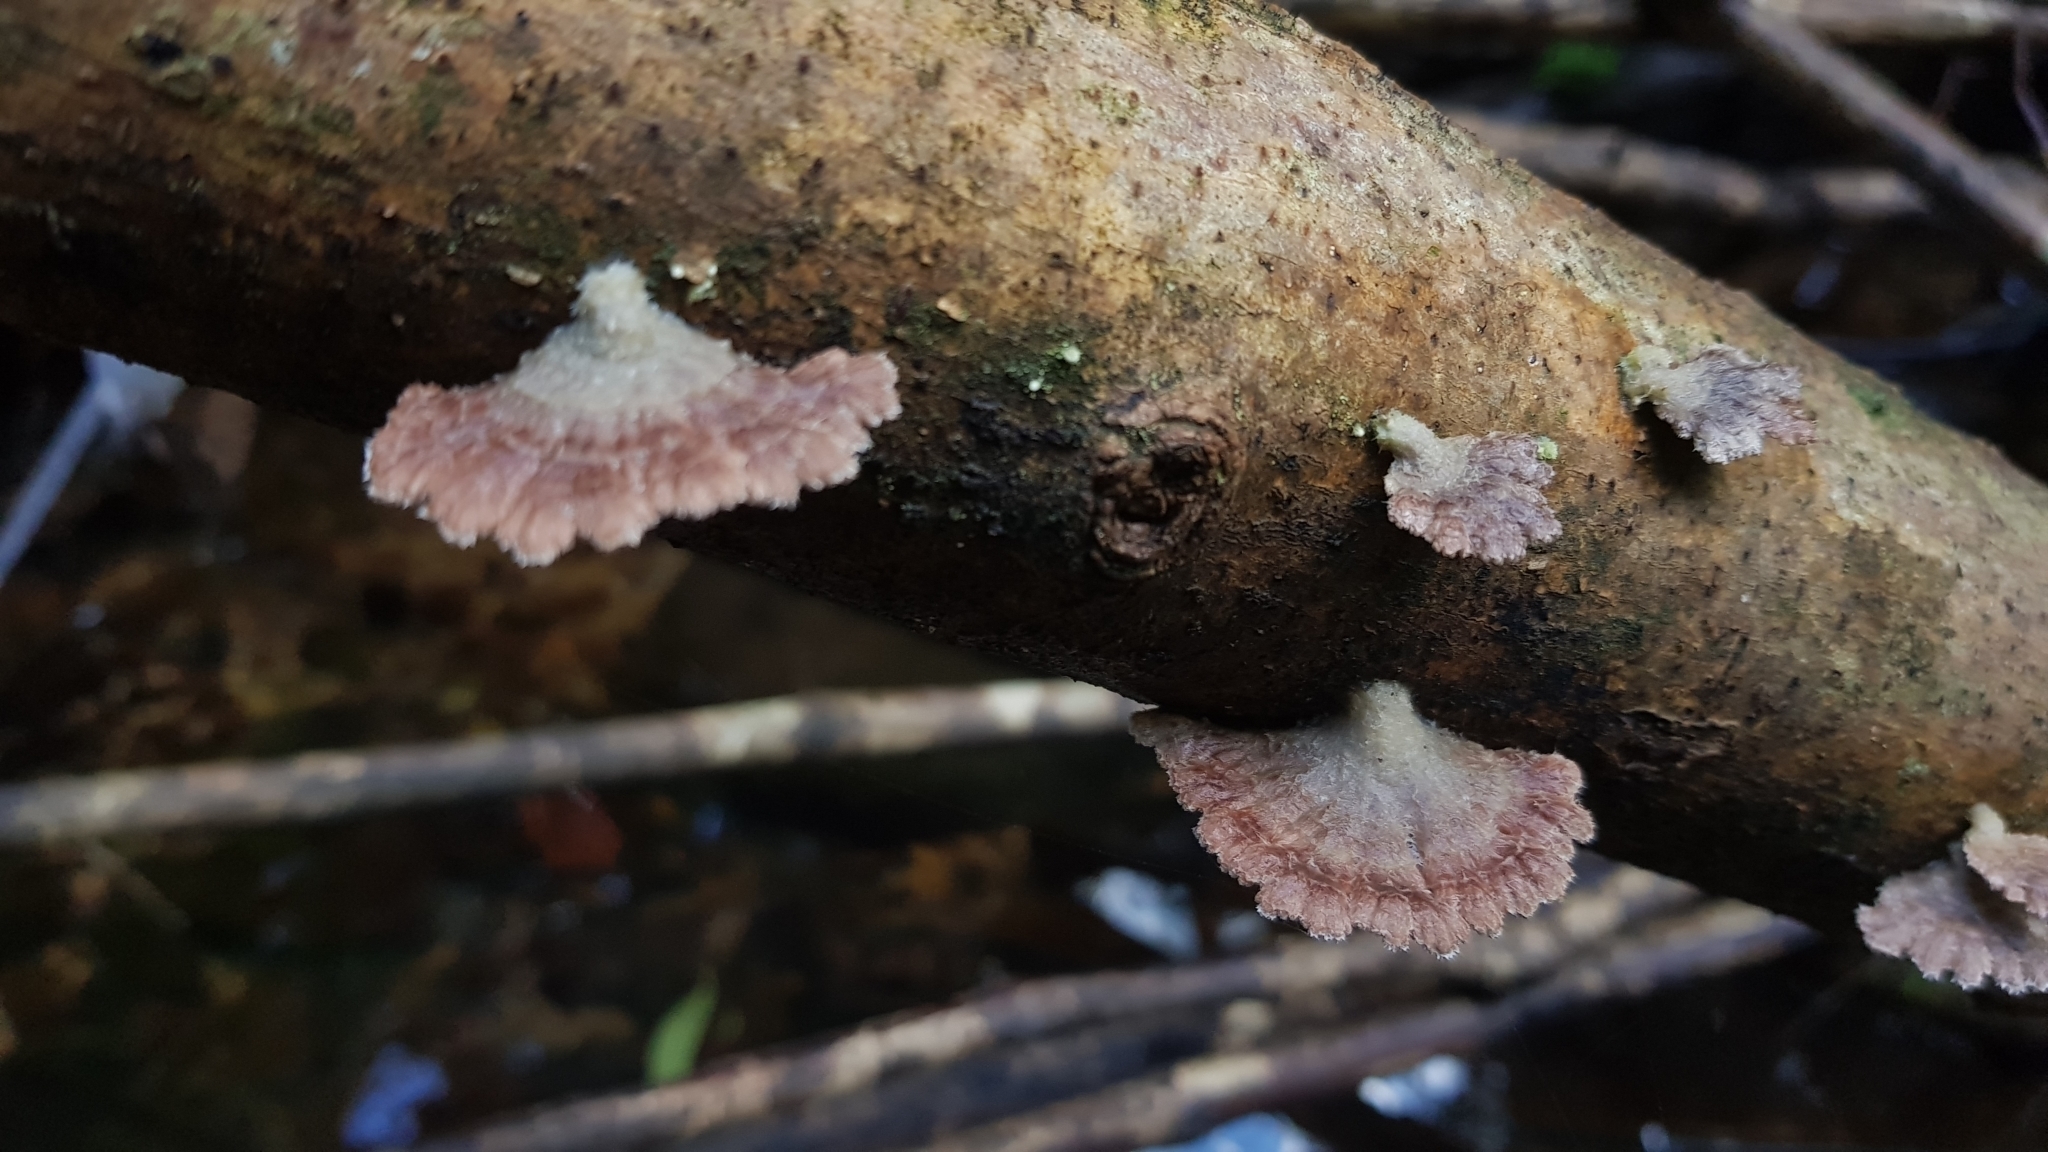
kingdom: Fungi
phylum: Basidiomycota
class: Agaricomycetes
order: Agaricales
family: Schizophyllaceae
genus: Schizophyllum
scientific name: Schizophyllum commune
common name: Common porecrust
